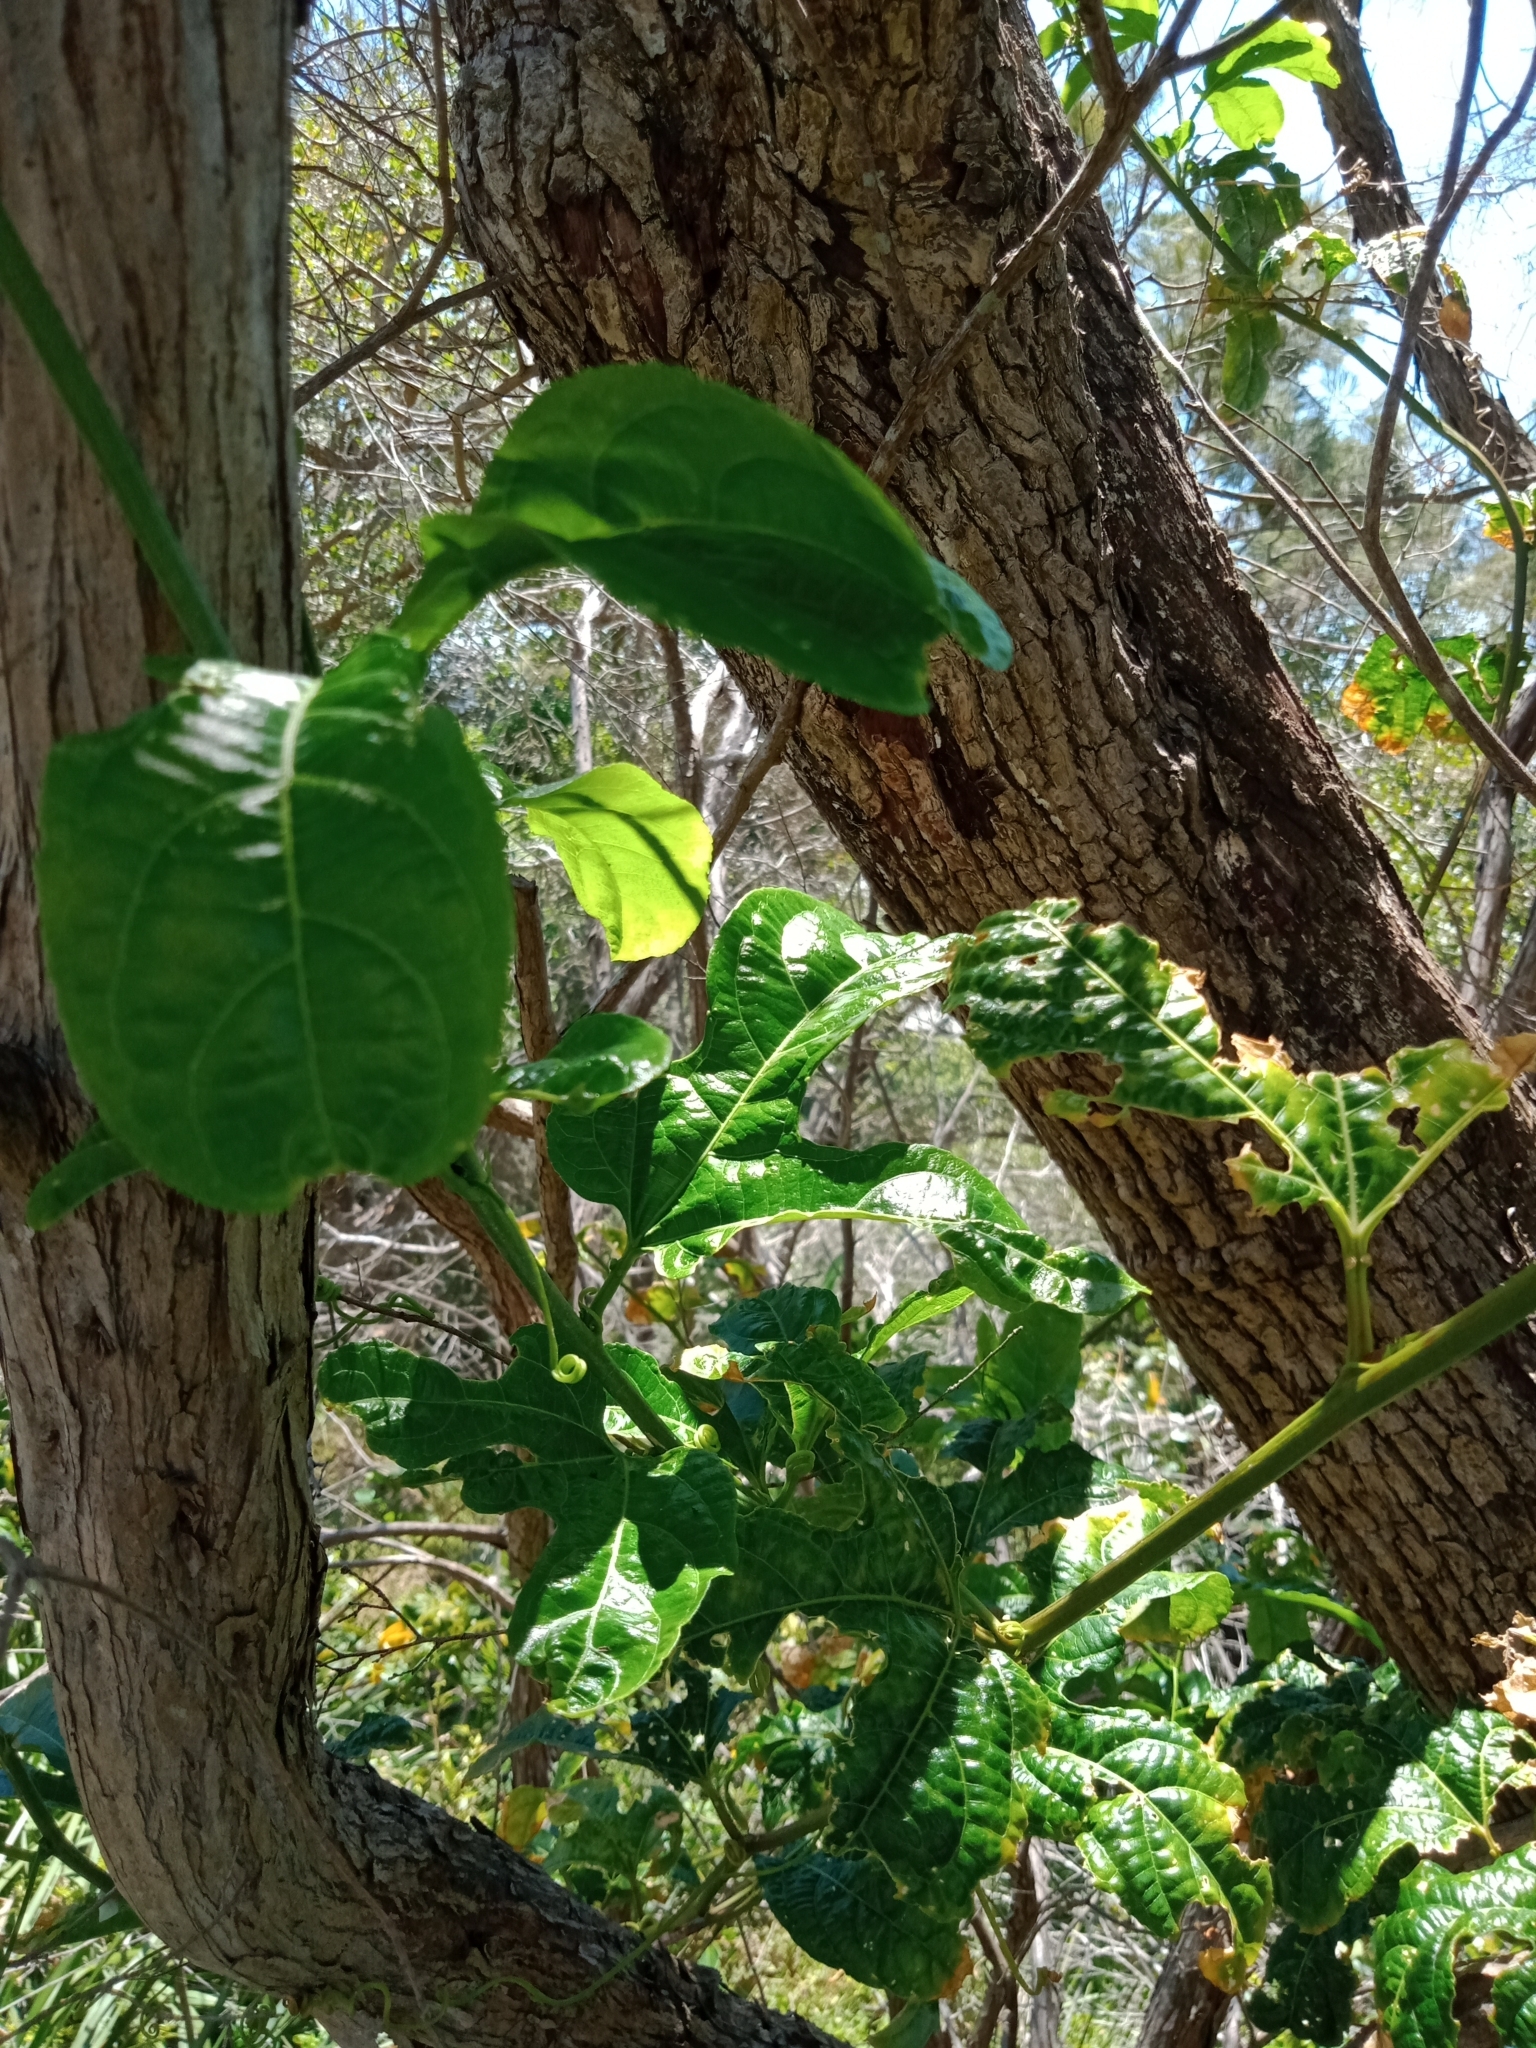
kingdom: Plantae
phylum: Tracheophyta
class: Magnoliopsida
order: Malpighiales
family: Passifloraceae
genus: Passiflora
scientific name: Passiflora edulis
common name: Purple granadilla
